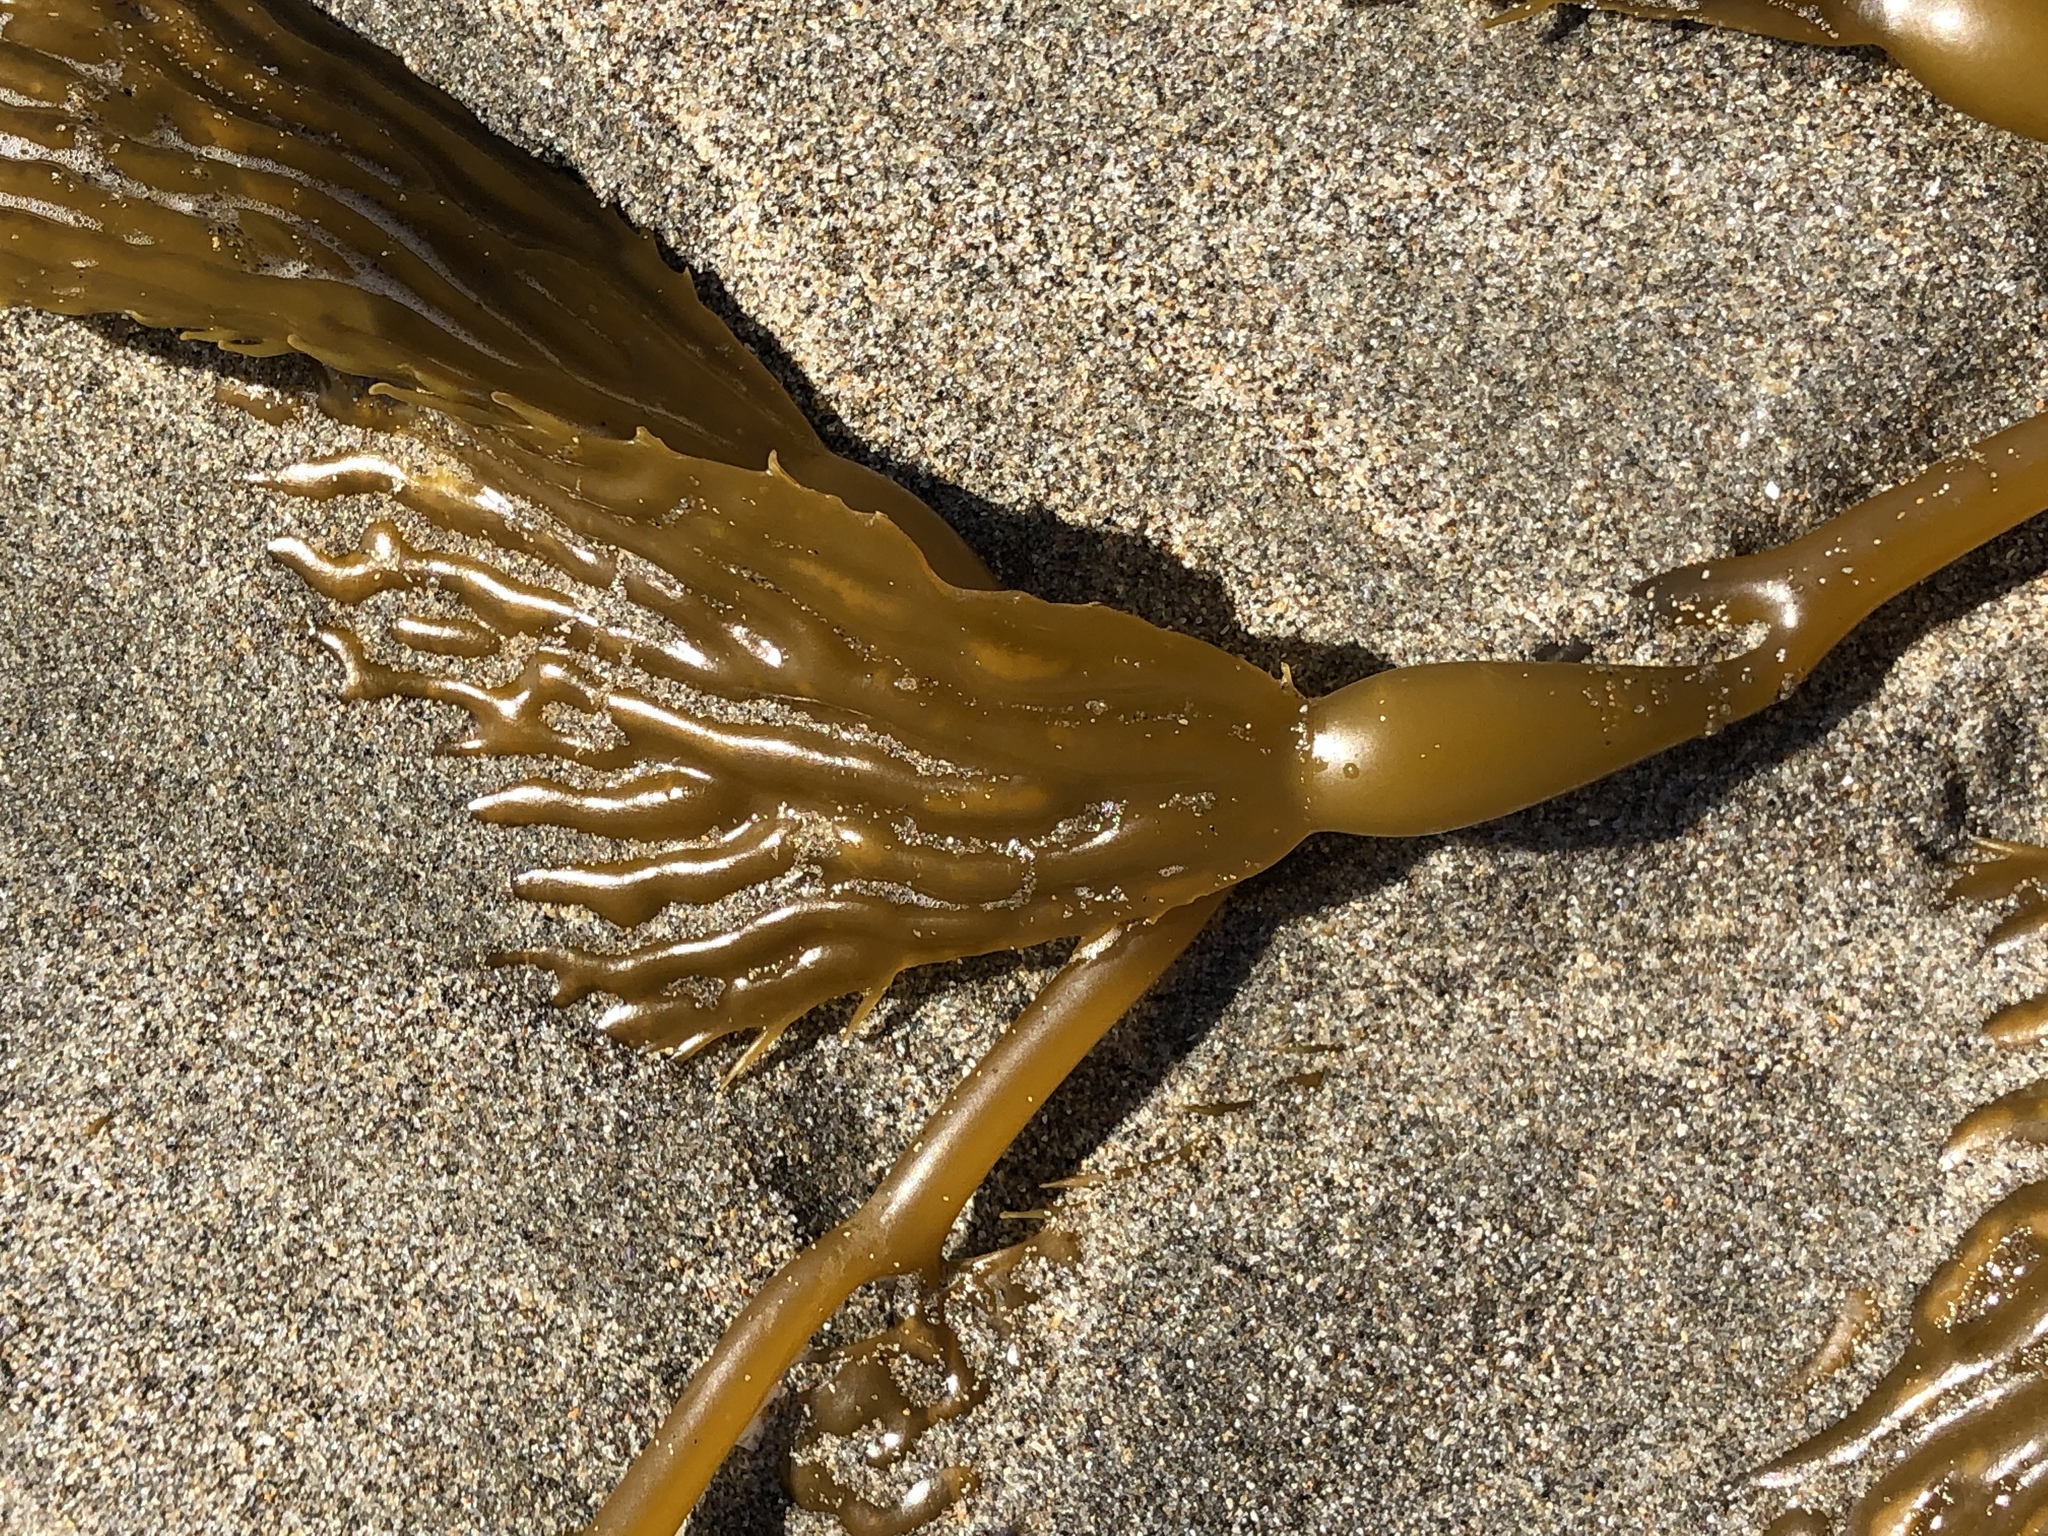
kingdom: Chromista
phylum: Ochrophyta
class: Phaeophyceae
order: Laminariales
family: Laminariaceae
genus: Macrocystis
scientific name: Macrocystis pyrifera
